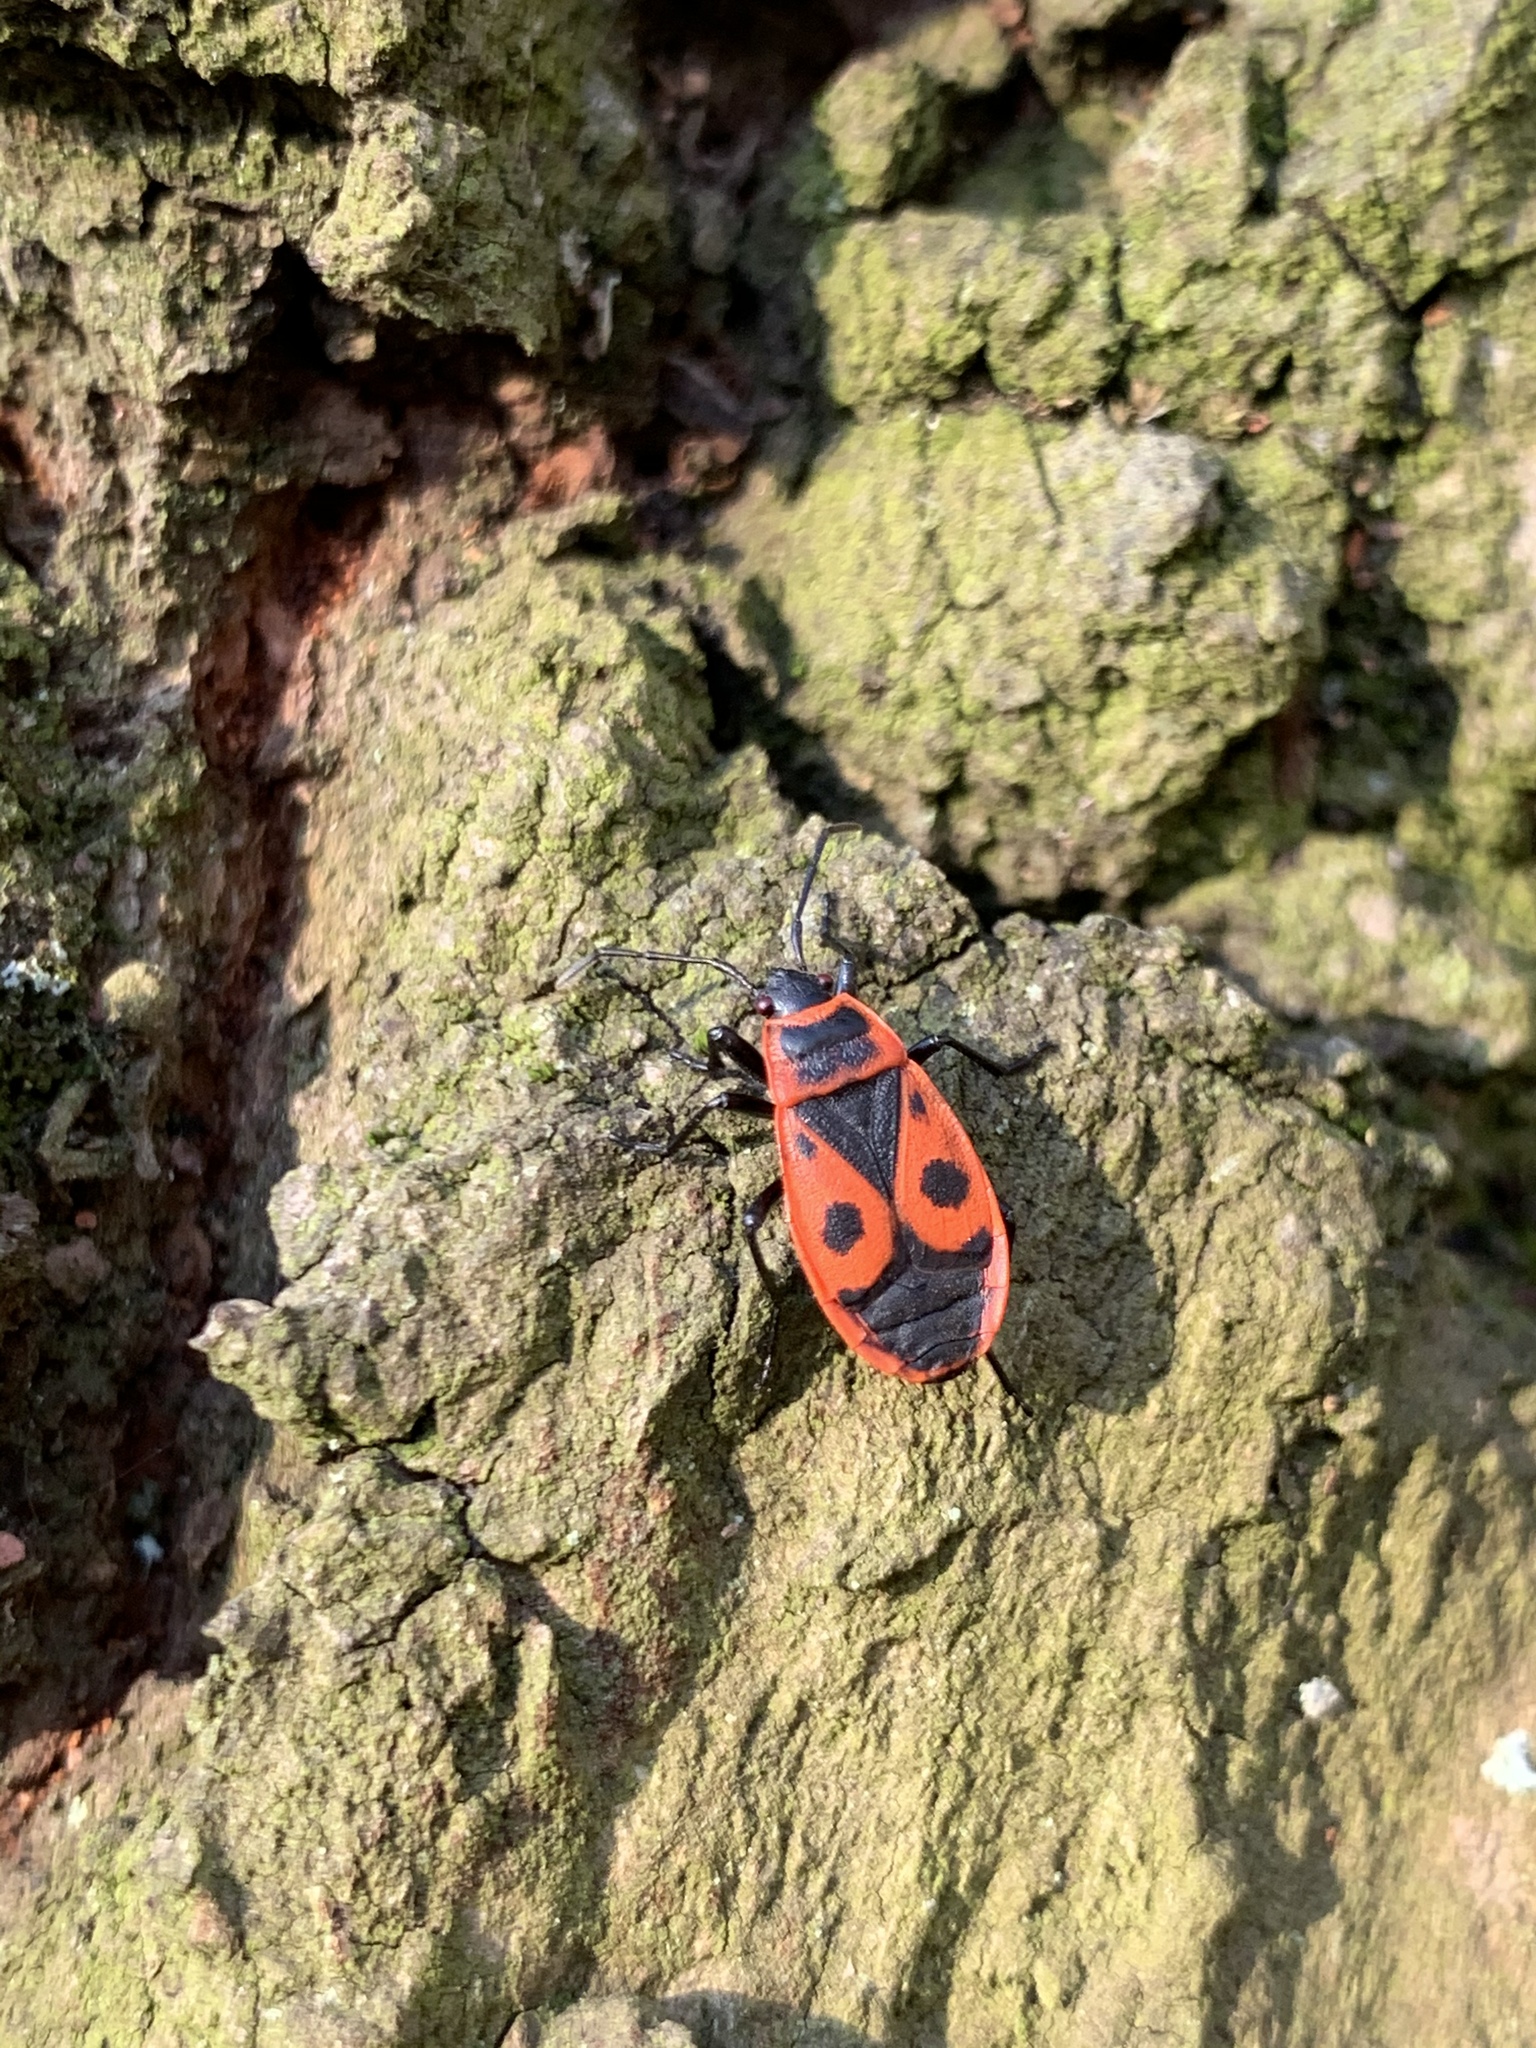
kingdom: Animalia
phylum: Arthropoda
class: Insecta
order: Hemiptera
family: Pyrrhocoridae
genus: Pyrrhocoris
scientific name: Pyrrhocoris apterus
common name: Firebug
